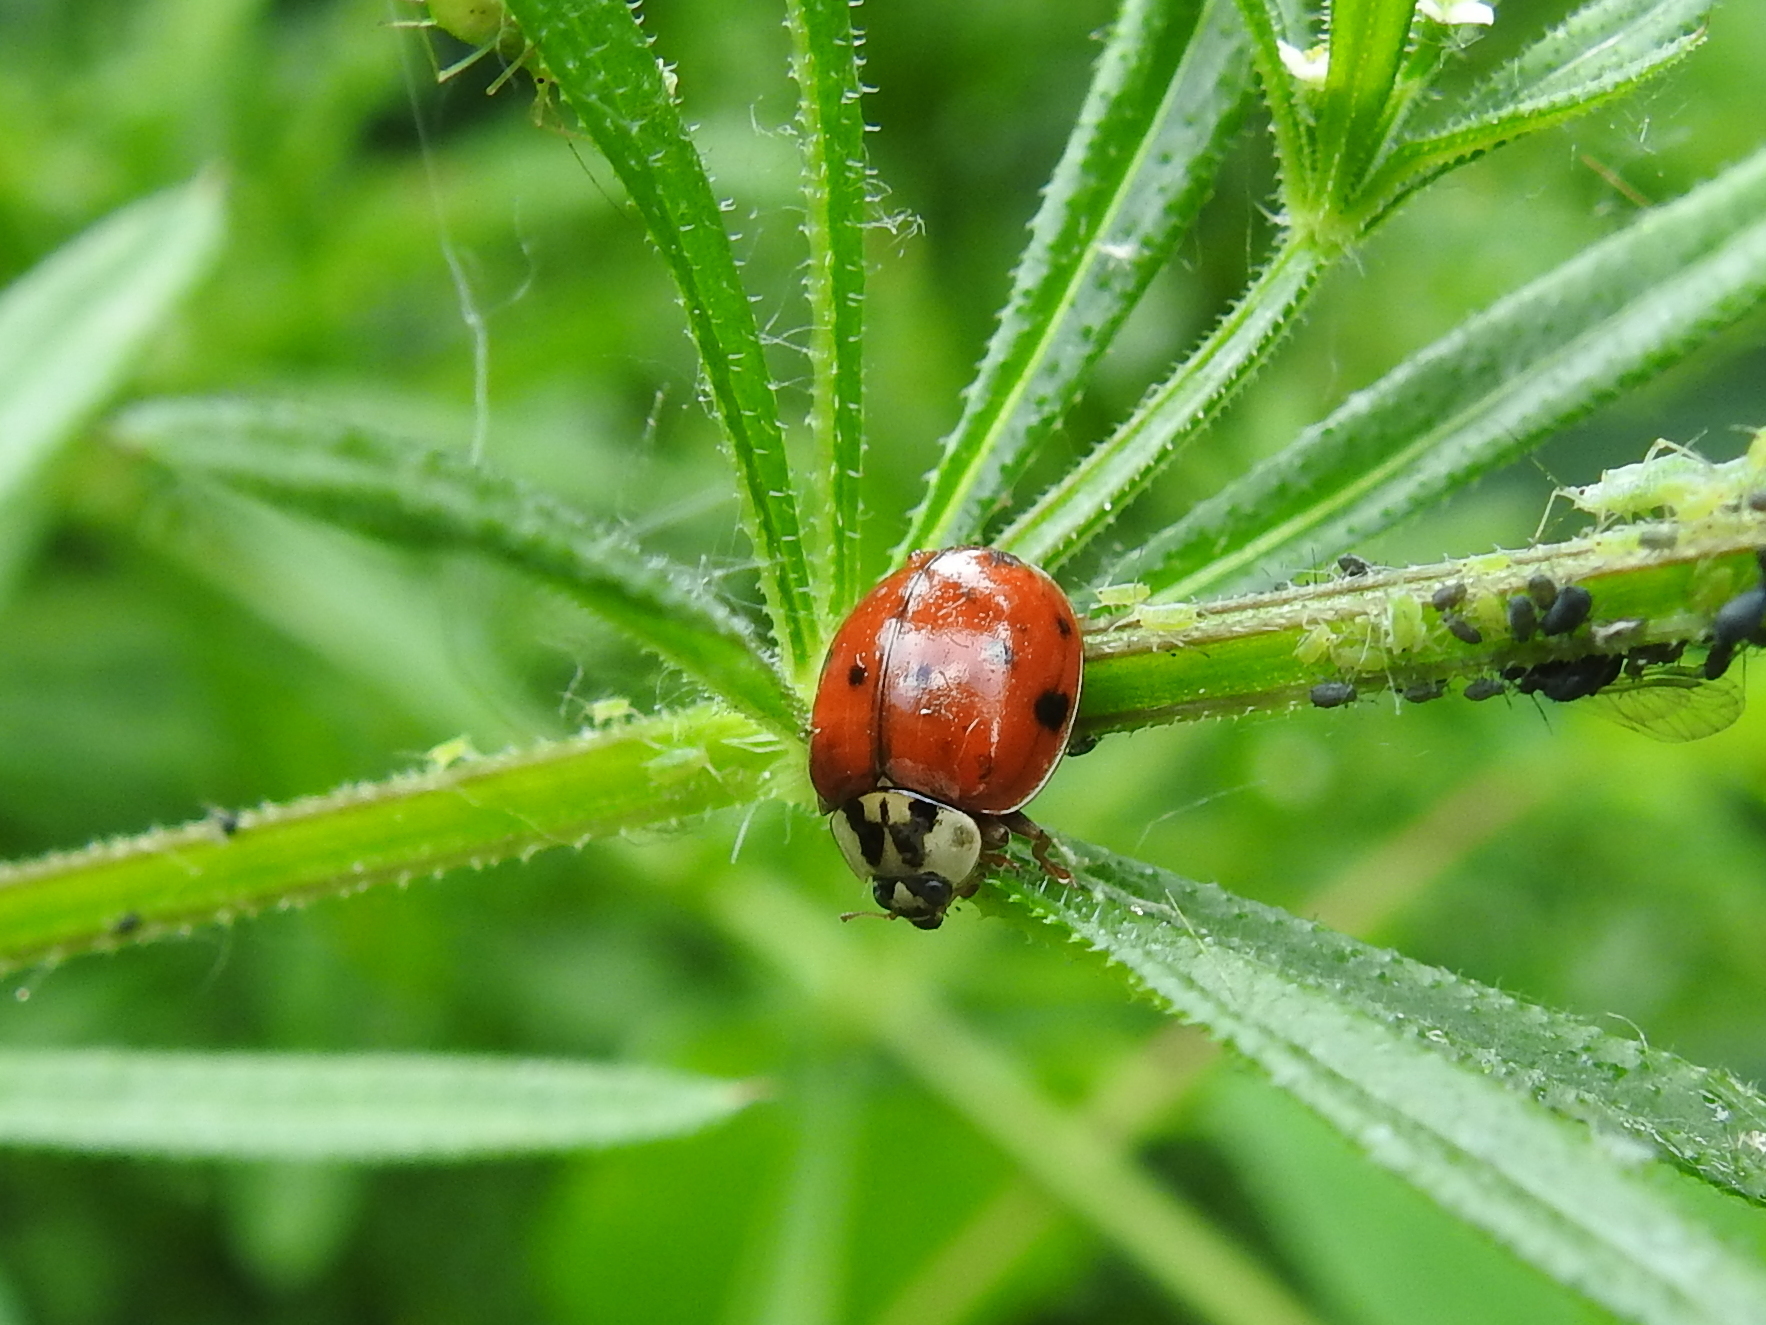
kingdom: Animalia
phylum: Arthropoda
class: Insecta
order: Coleoptera
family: Coccinellidae
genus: Harmonia
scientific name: Harmonia axyridis
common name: Harlequin ladybird
